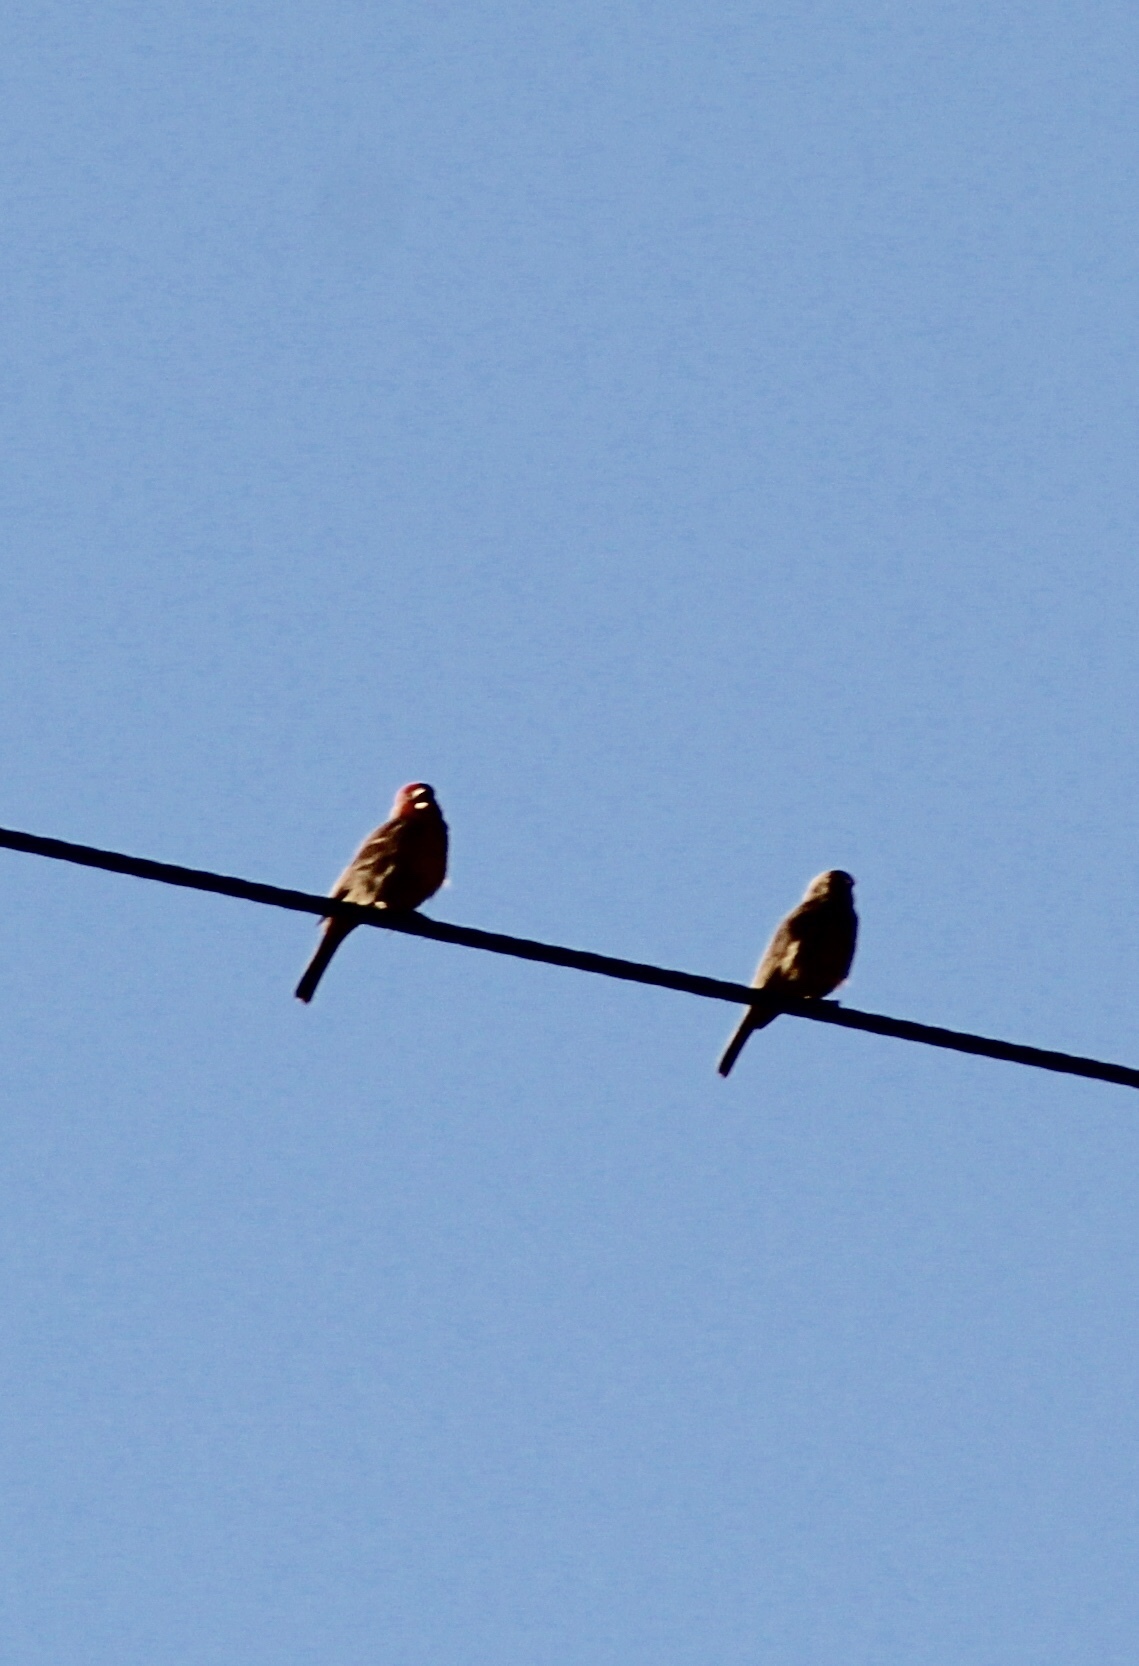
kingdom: Animalia
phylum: Chordata
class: Aves
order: Passeriformes
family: Fringillidae
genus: Haemorhous
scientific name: Haemorhous mexicanus
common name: House finch
